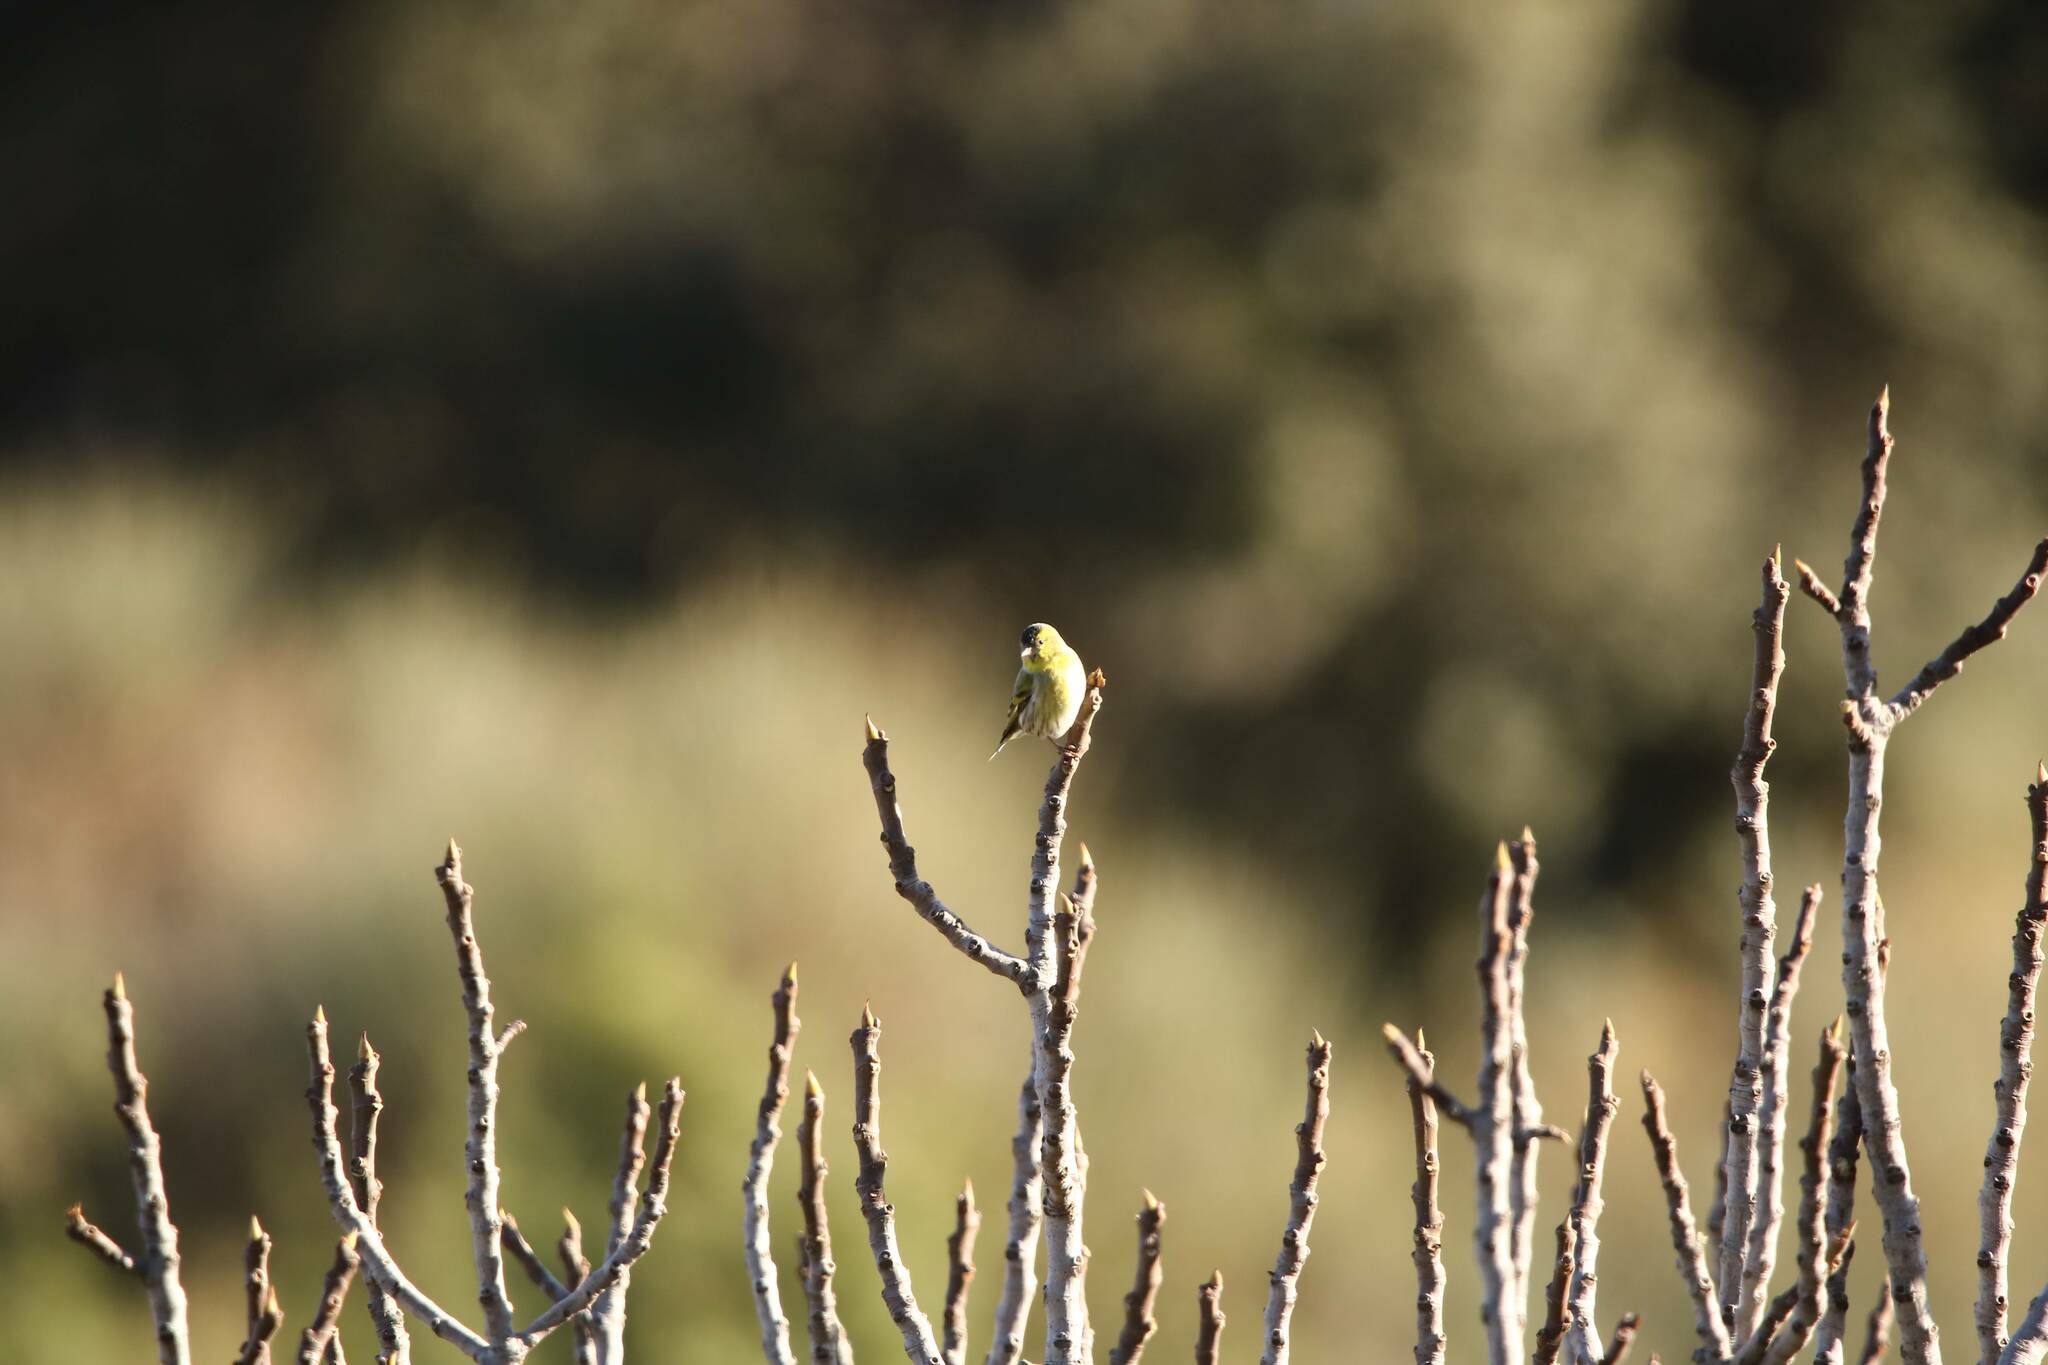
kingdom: Animalia
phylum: Chordata
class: Aves
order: Passeriformes
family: Fringillidae
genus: Spinus
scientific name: Spinus spinus
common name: Eurasian siskin
